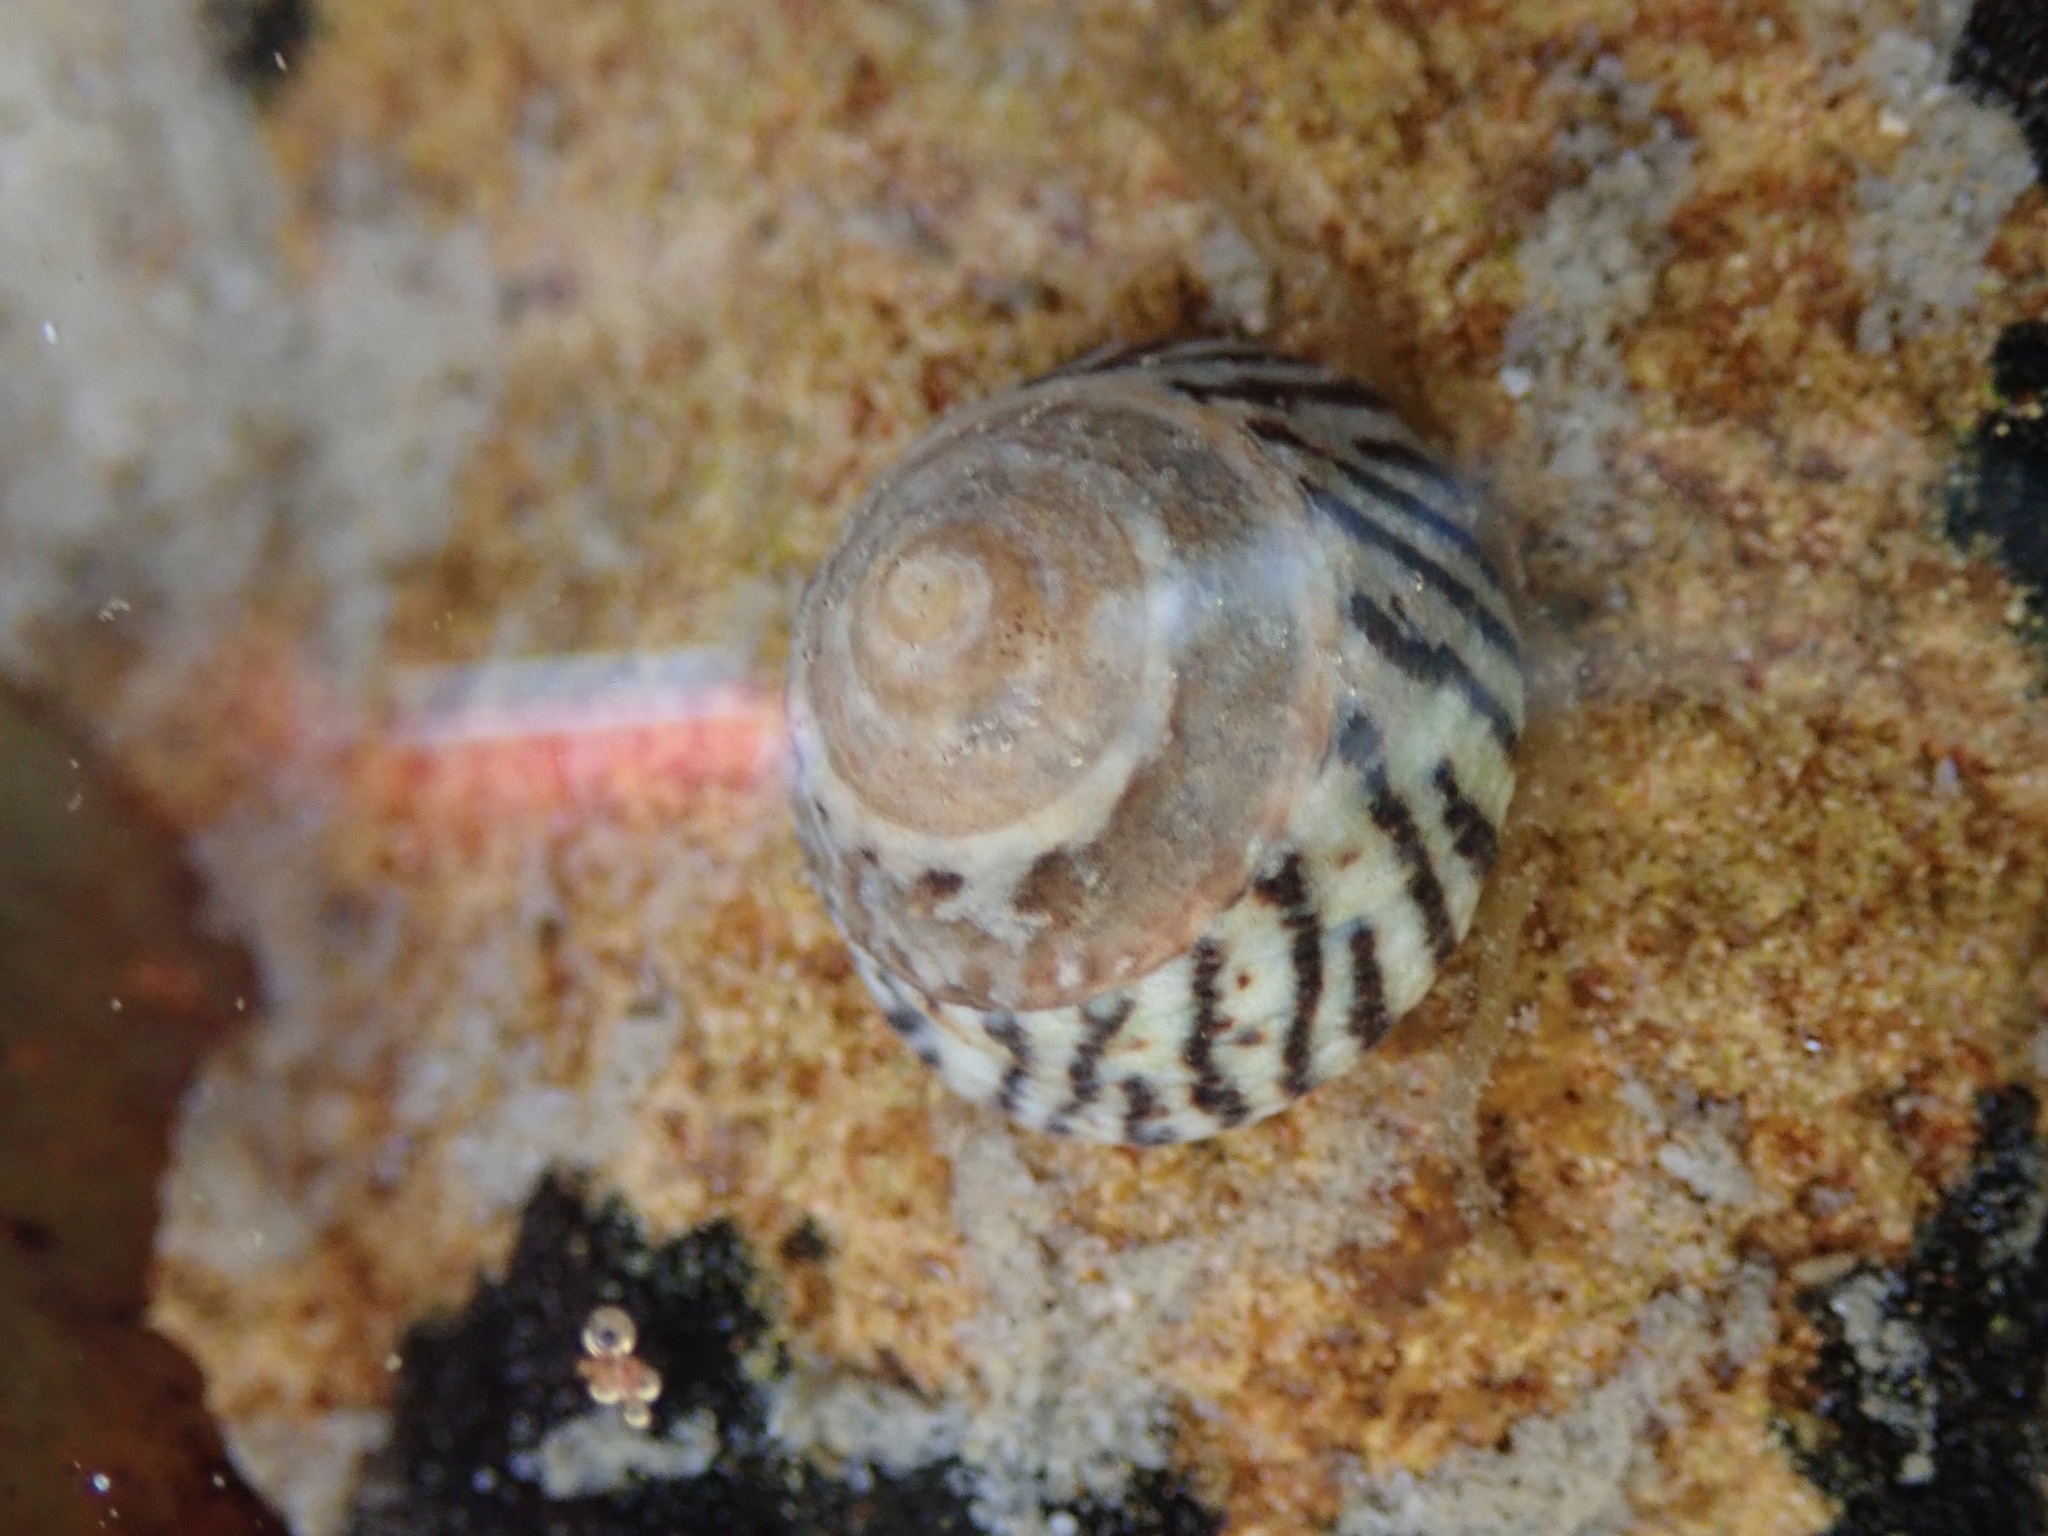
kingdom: Animalia
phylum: Mollusca
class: Gastropoda
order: Littorinimorpha
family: Littorinidae
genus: Bembicium
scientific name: Bembicium nanum
